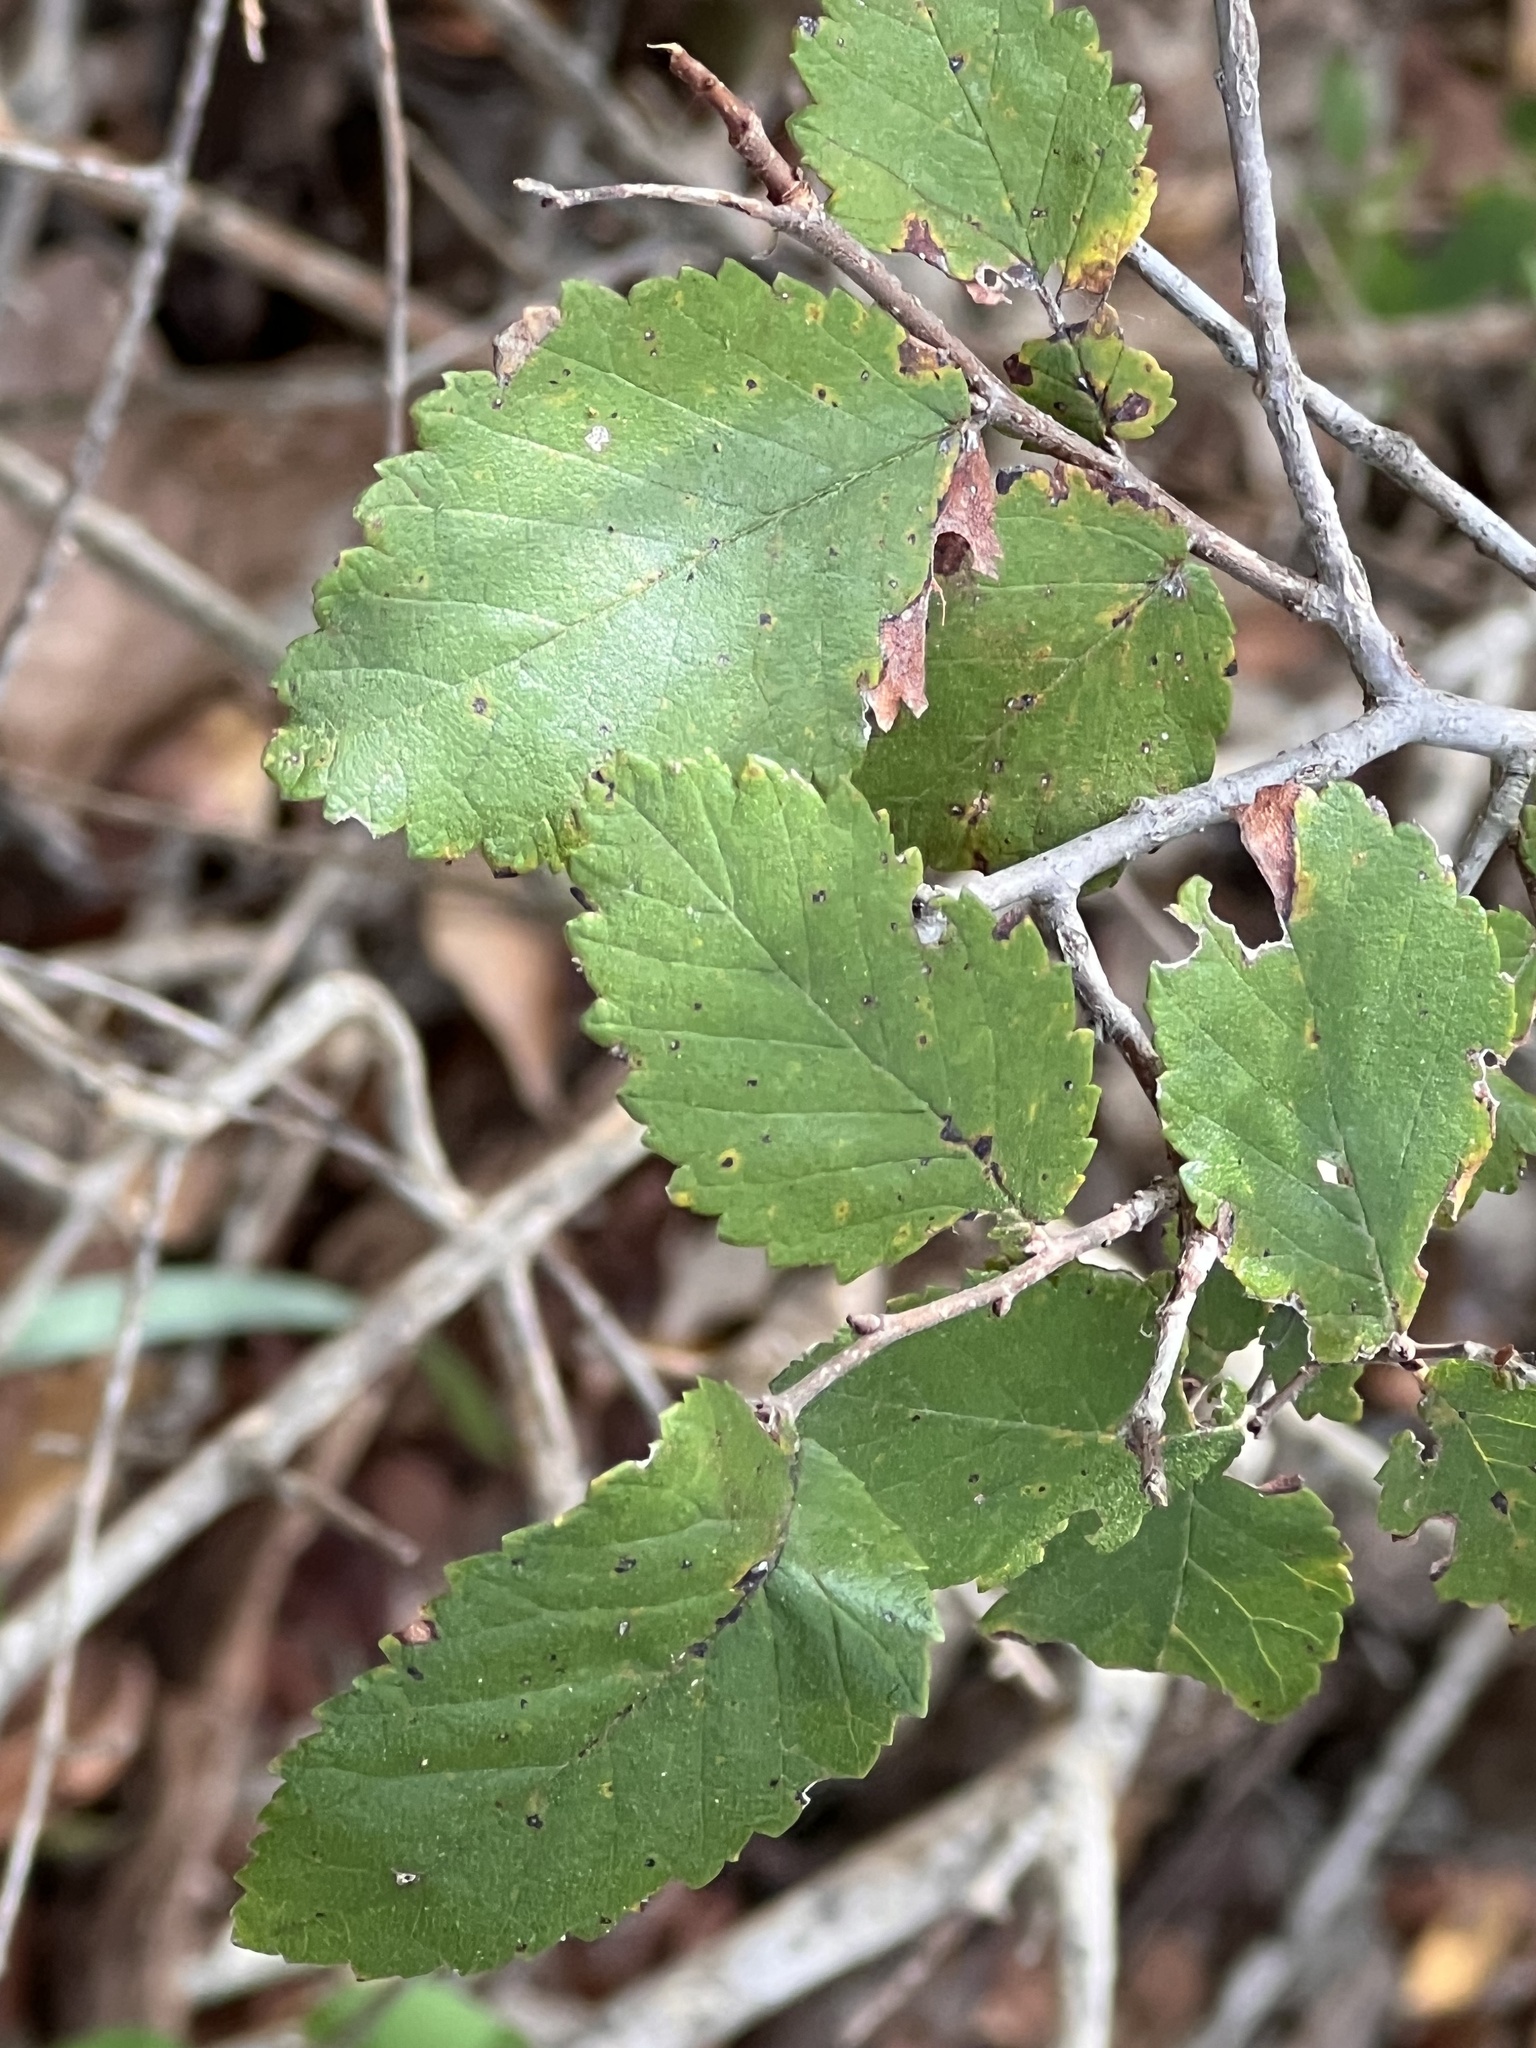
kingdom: Plantae
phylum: Tracheophyta
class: Magnoliopsida
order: Rosales
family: Ulmaceae
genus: Ulmus
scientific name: Ulmus crassifolia
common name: Basket elm
